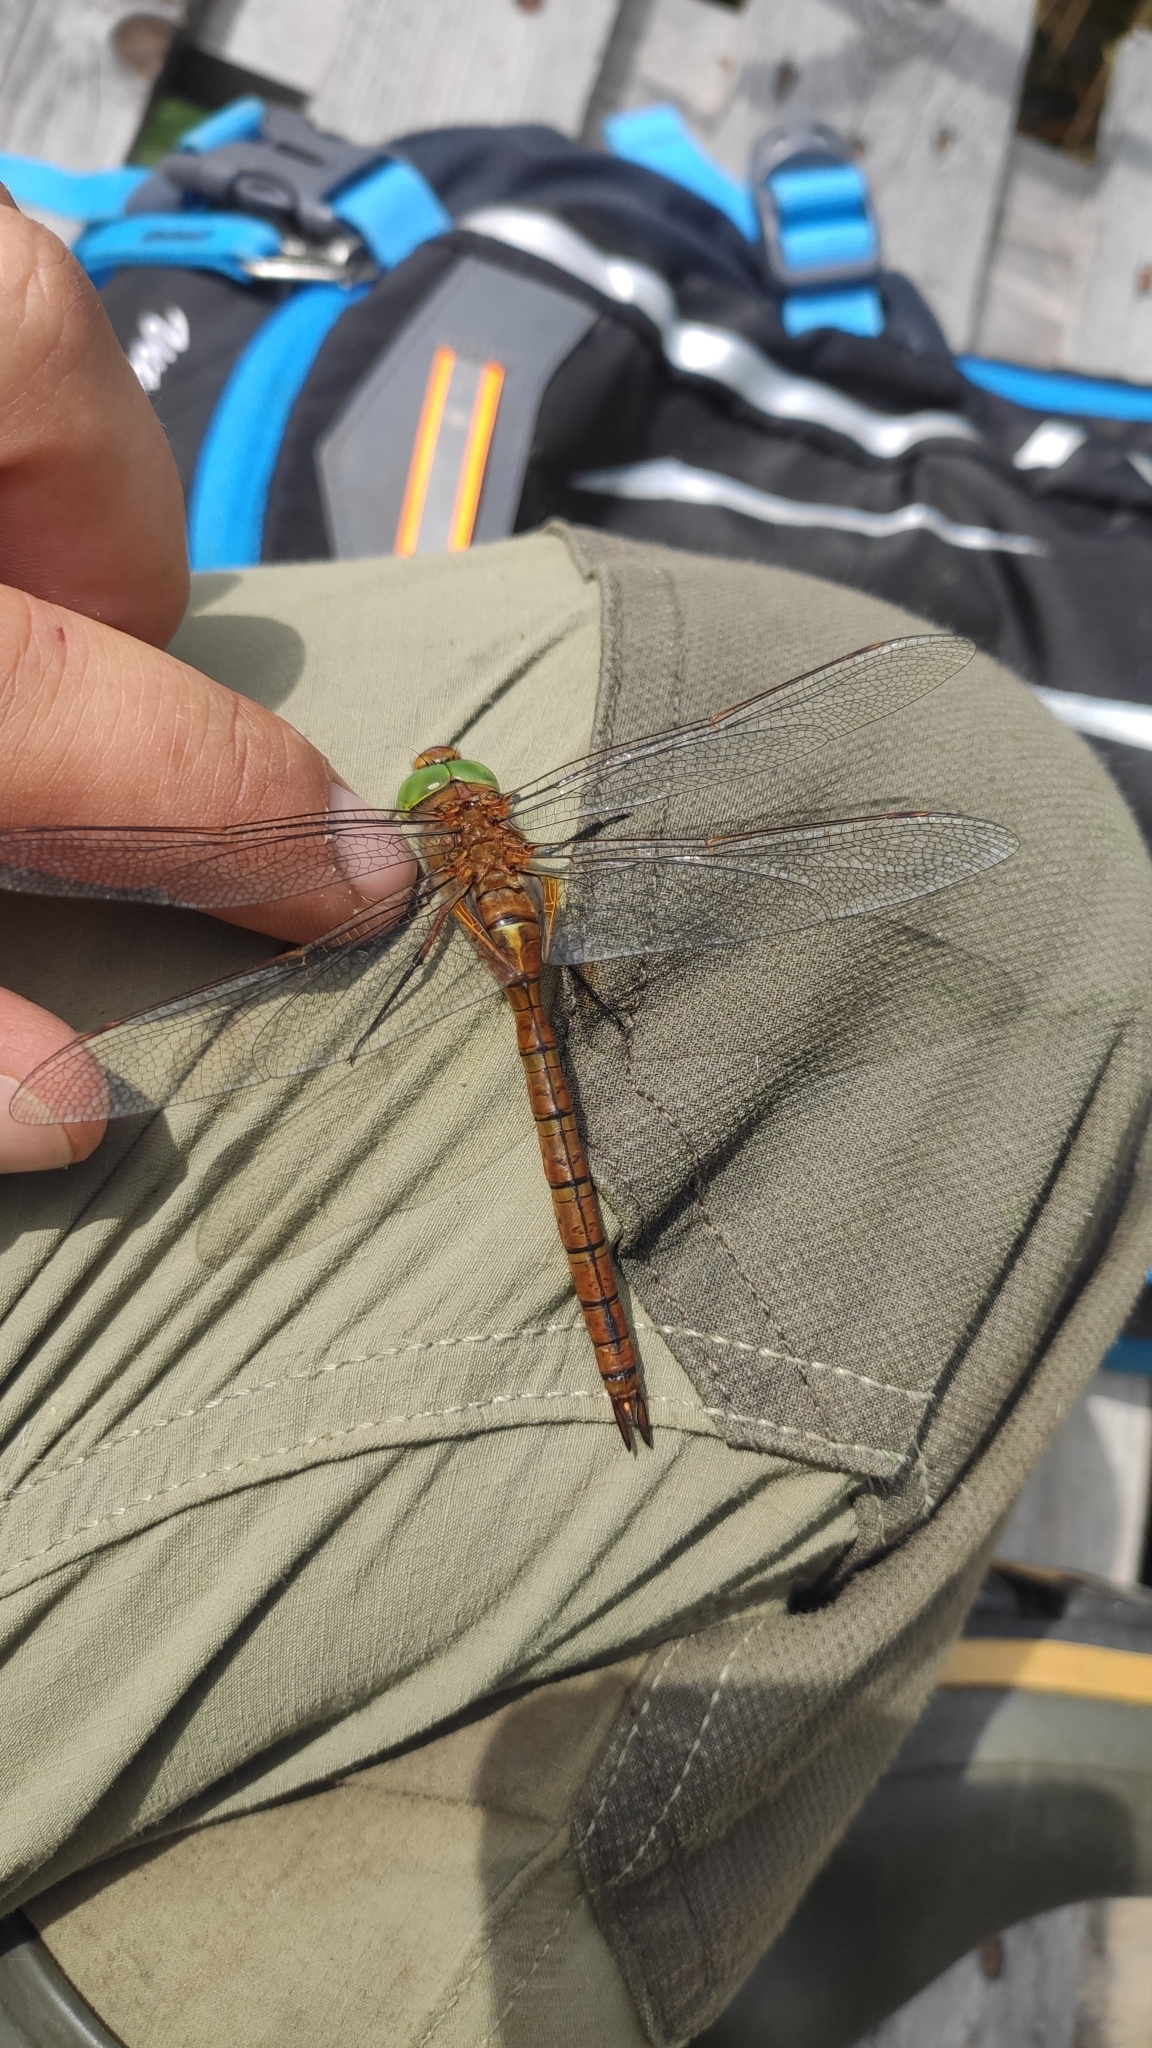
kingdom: Animalia
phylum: Arthropoda
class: Insecta
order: Odonata
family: Aeshnidae
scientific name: Aeshnidae
